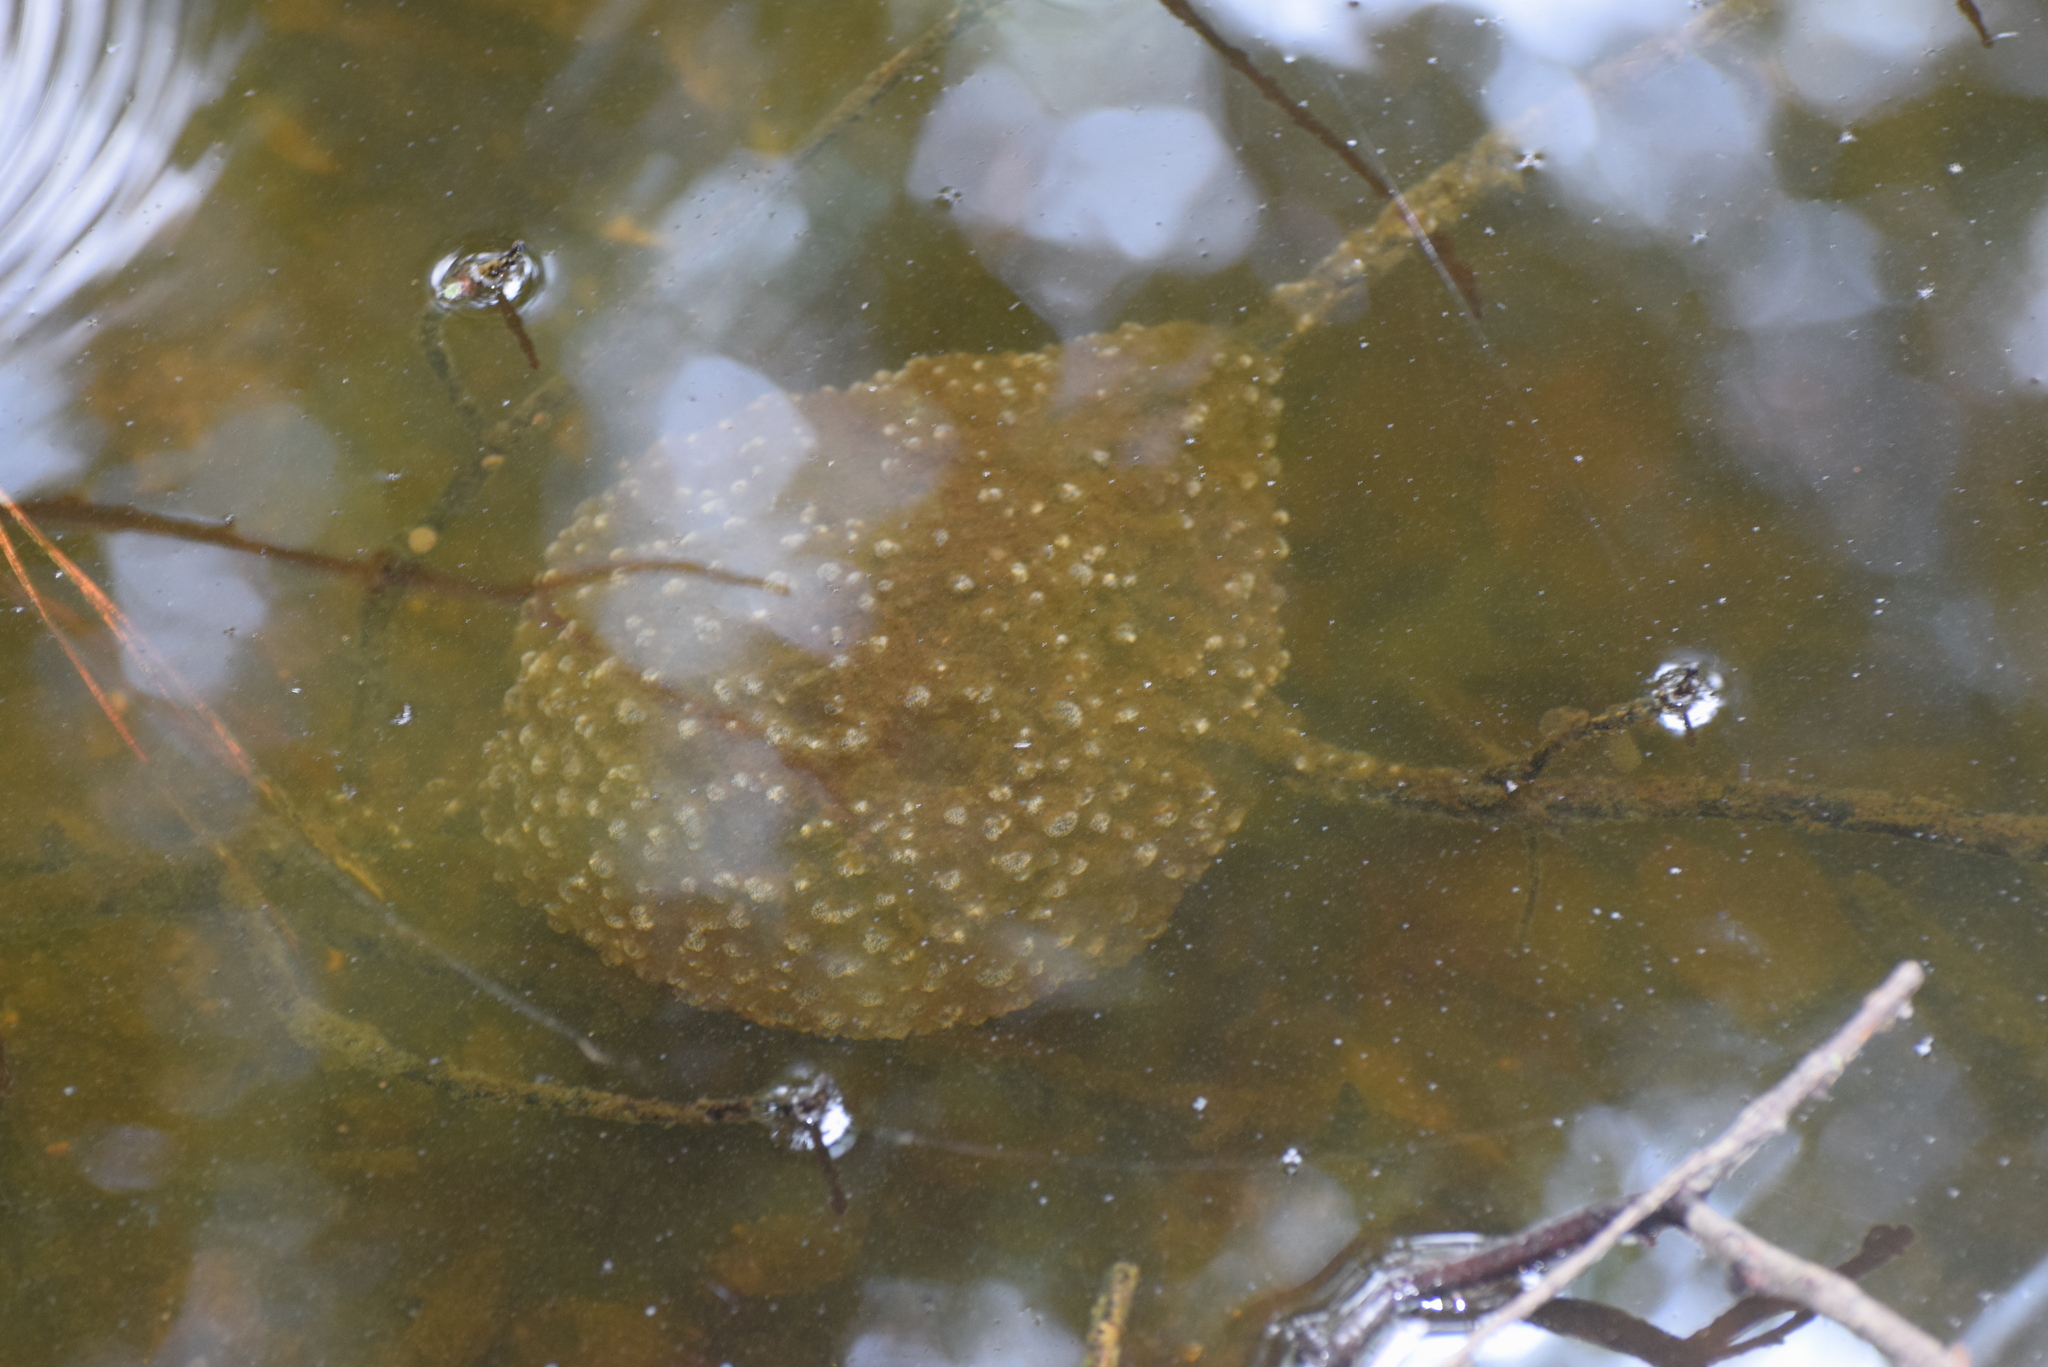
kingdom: Animalia
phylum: Bryozoa
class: Phylactolaemata
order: Plumatellida
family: Pectinatellidae
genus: Pectinatella
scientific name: Pectinatella magnifica
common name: Magnificent bryozoan
